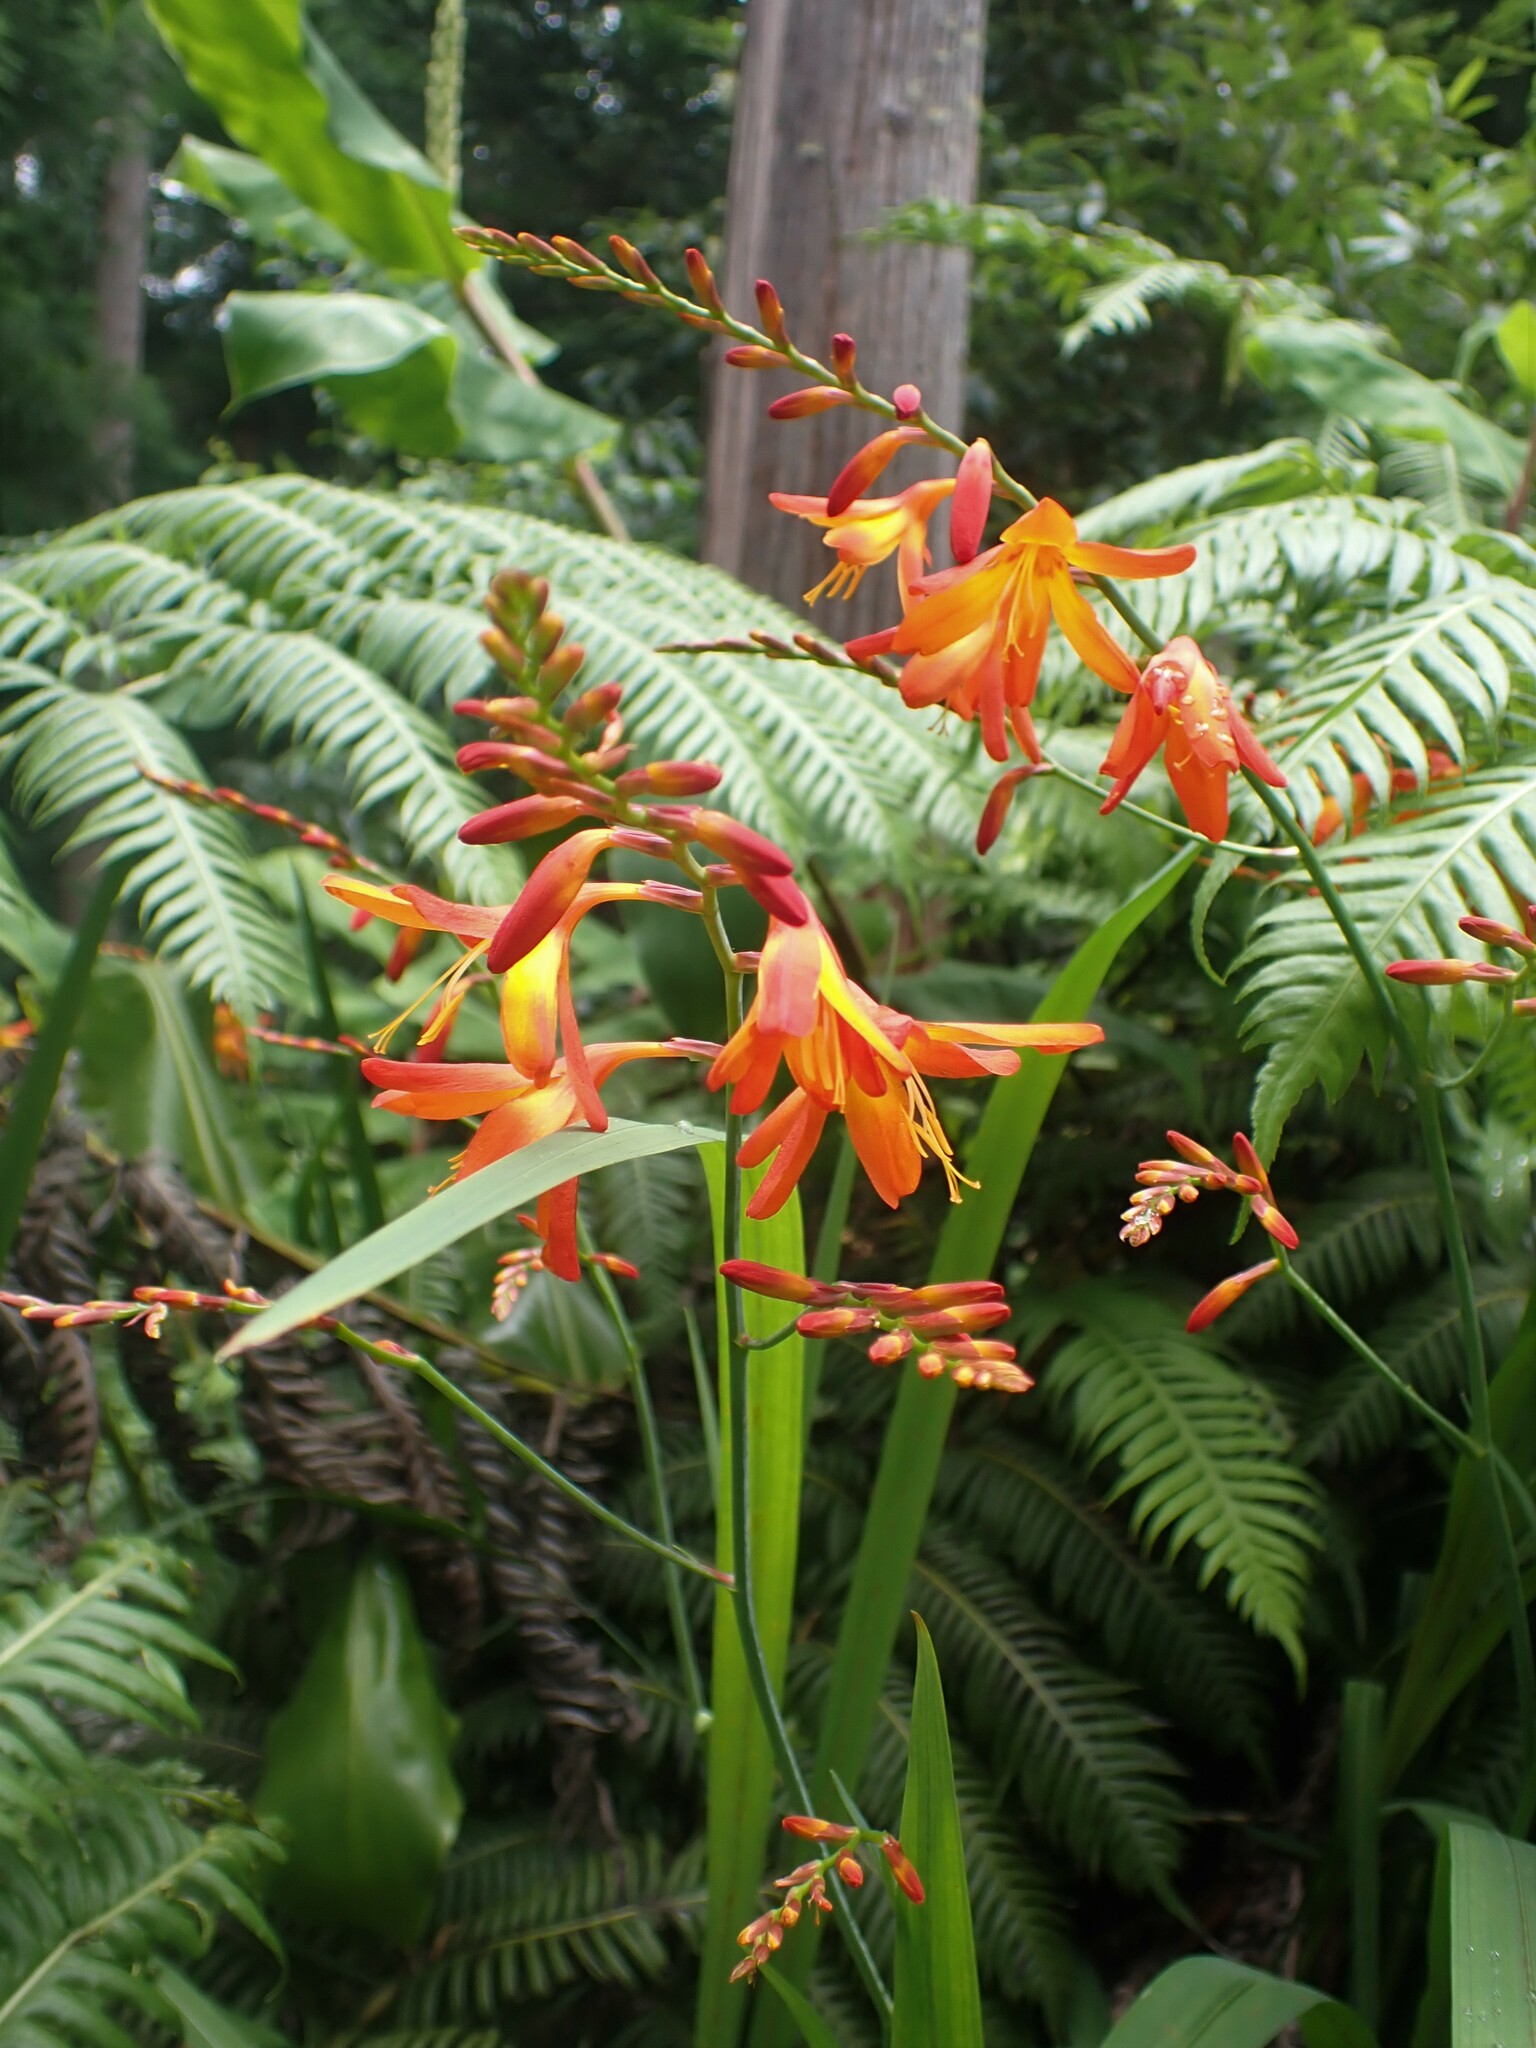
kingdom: Plantae
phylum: Tracheophyta
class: Liliopsida
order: Asparagales
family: Iridaceae
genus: Crocosmia
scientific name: Crocosmia crocosmiiflora
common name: Montbretia
